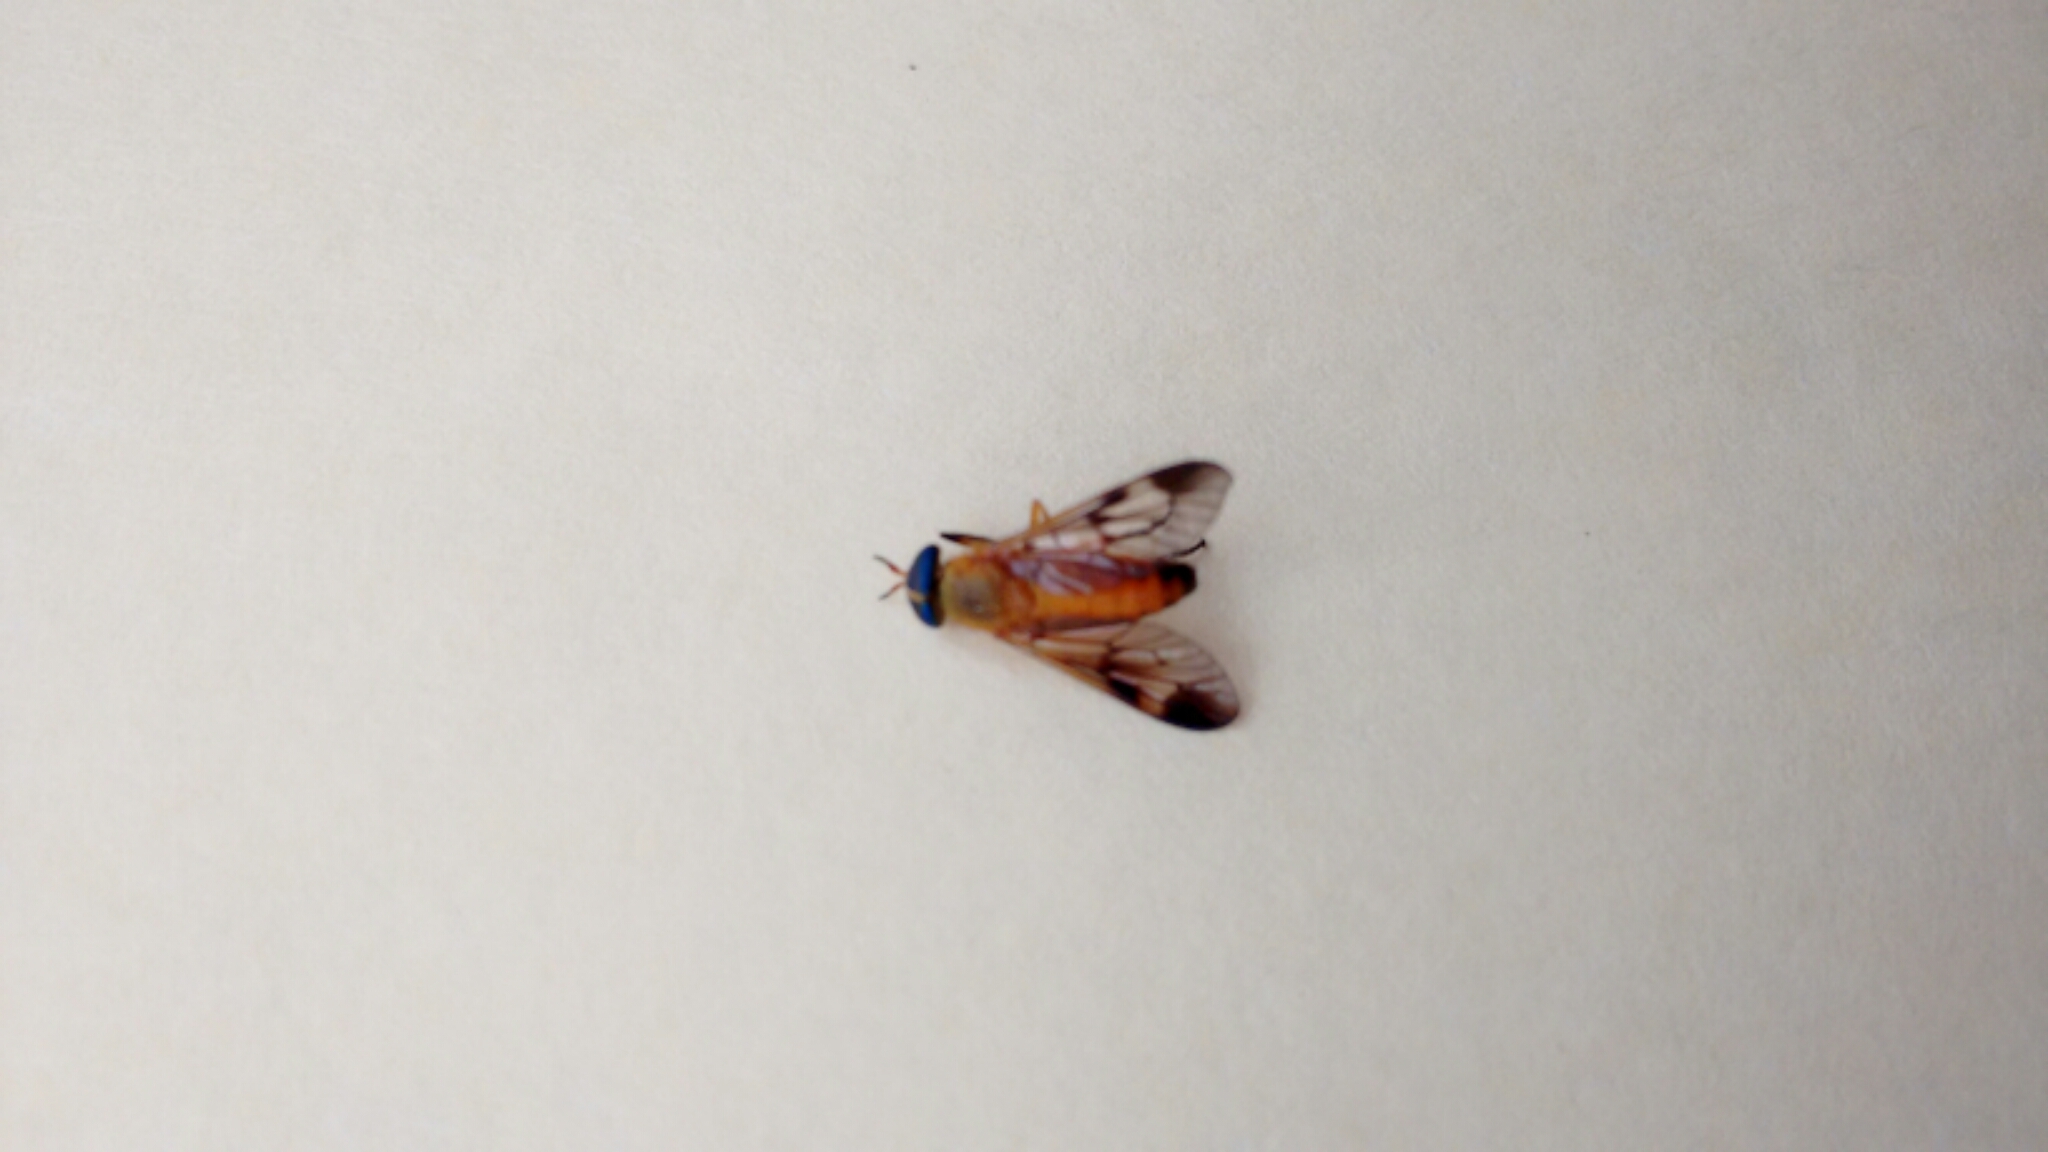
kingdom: Animalia
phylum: Arthropoda
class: Insecta
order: Diptera
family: Tabanidae
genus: Diachlorus
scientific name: Diachlorus ferrugatus
